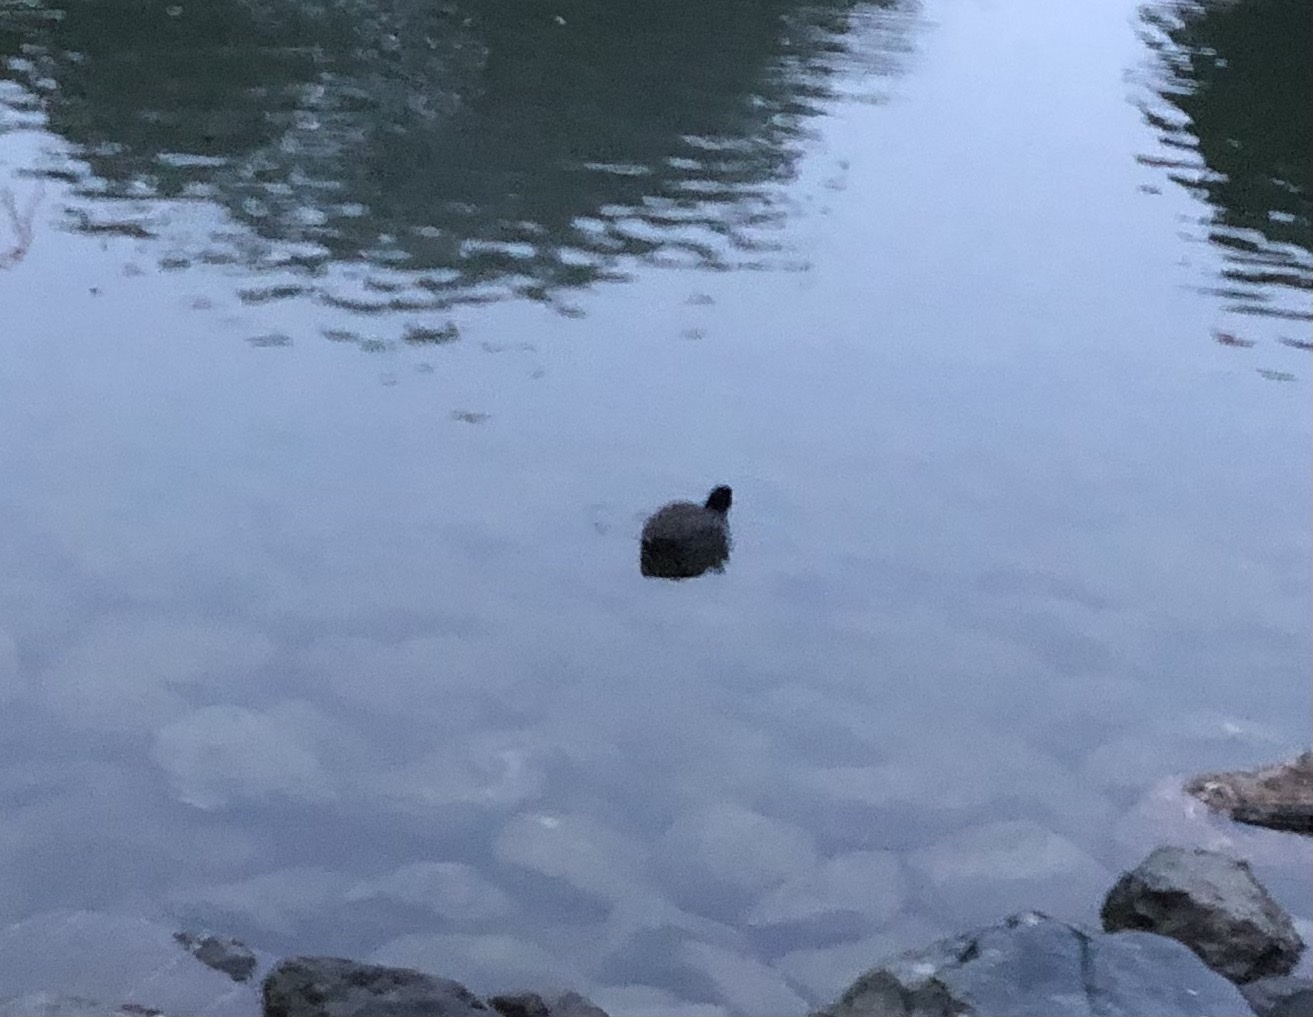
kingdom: Animalia
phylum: Chordata
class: Aves
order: Gruiformes
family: Rallidae
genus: Fulica
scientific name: Fulica americana
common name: American coot
